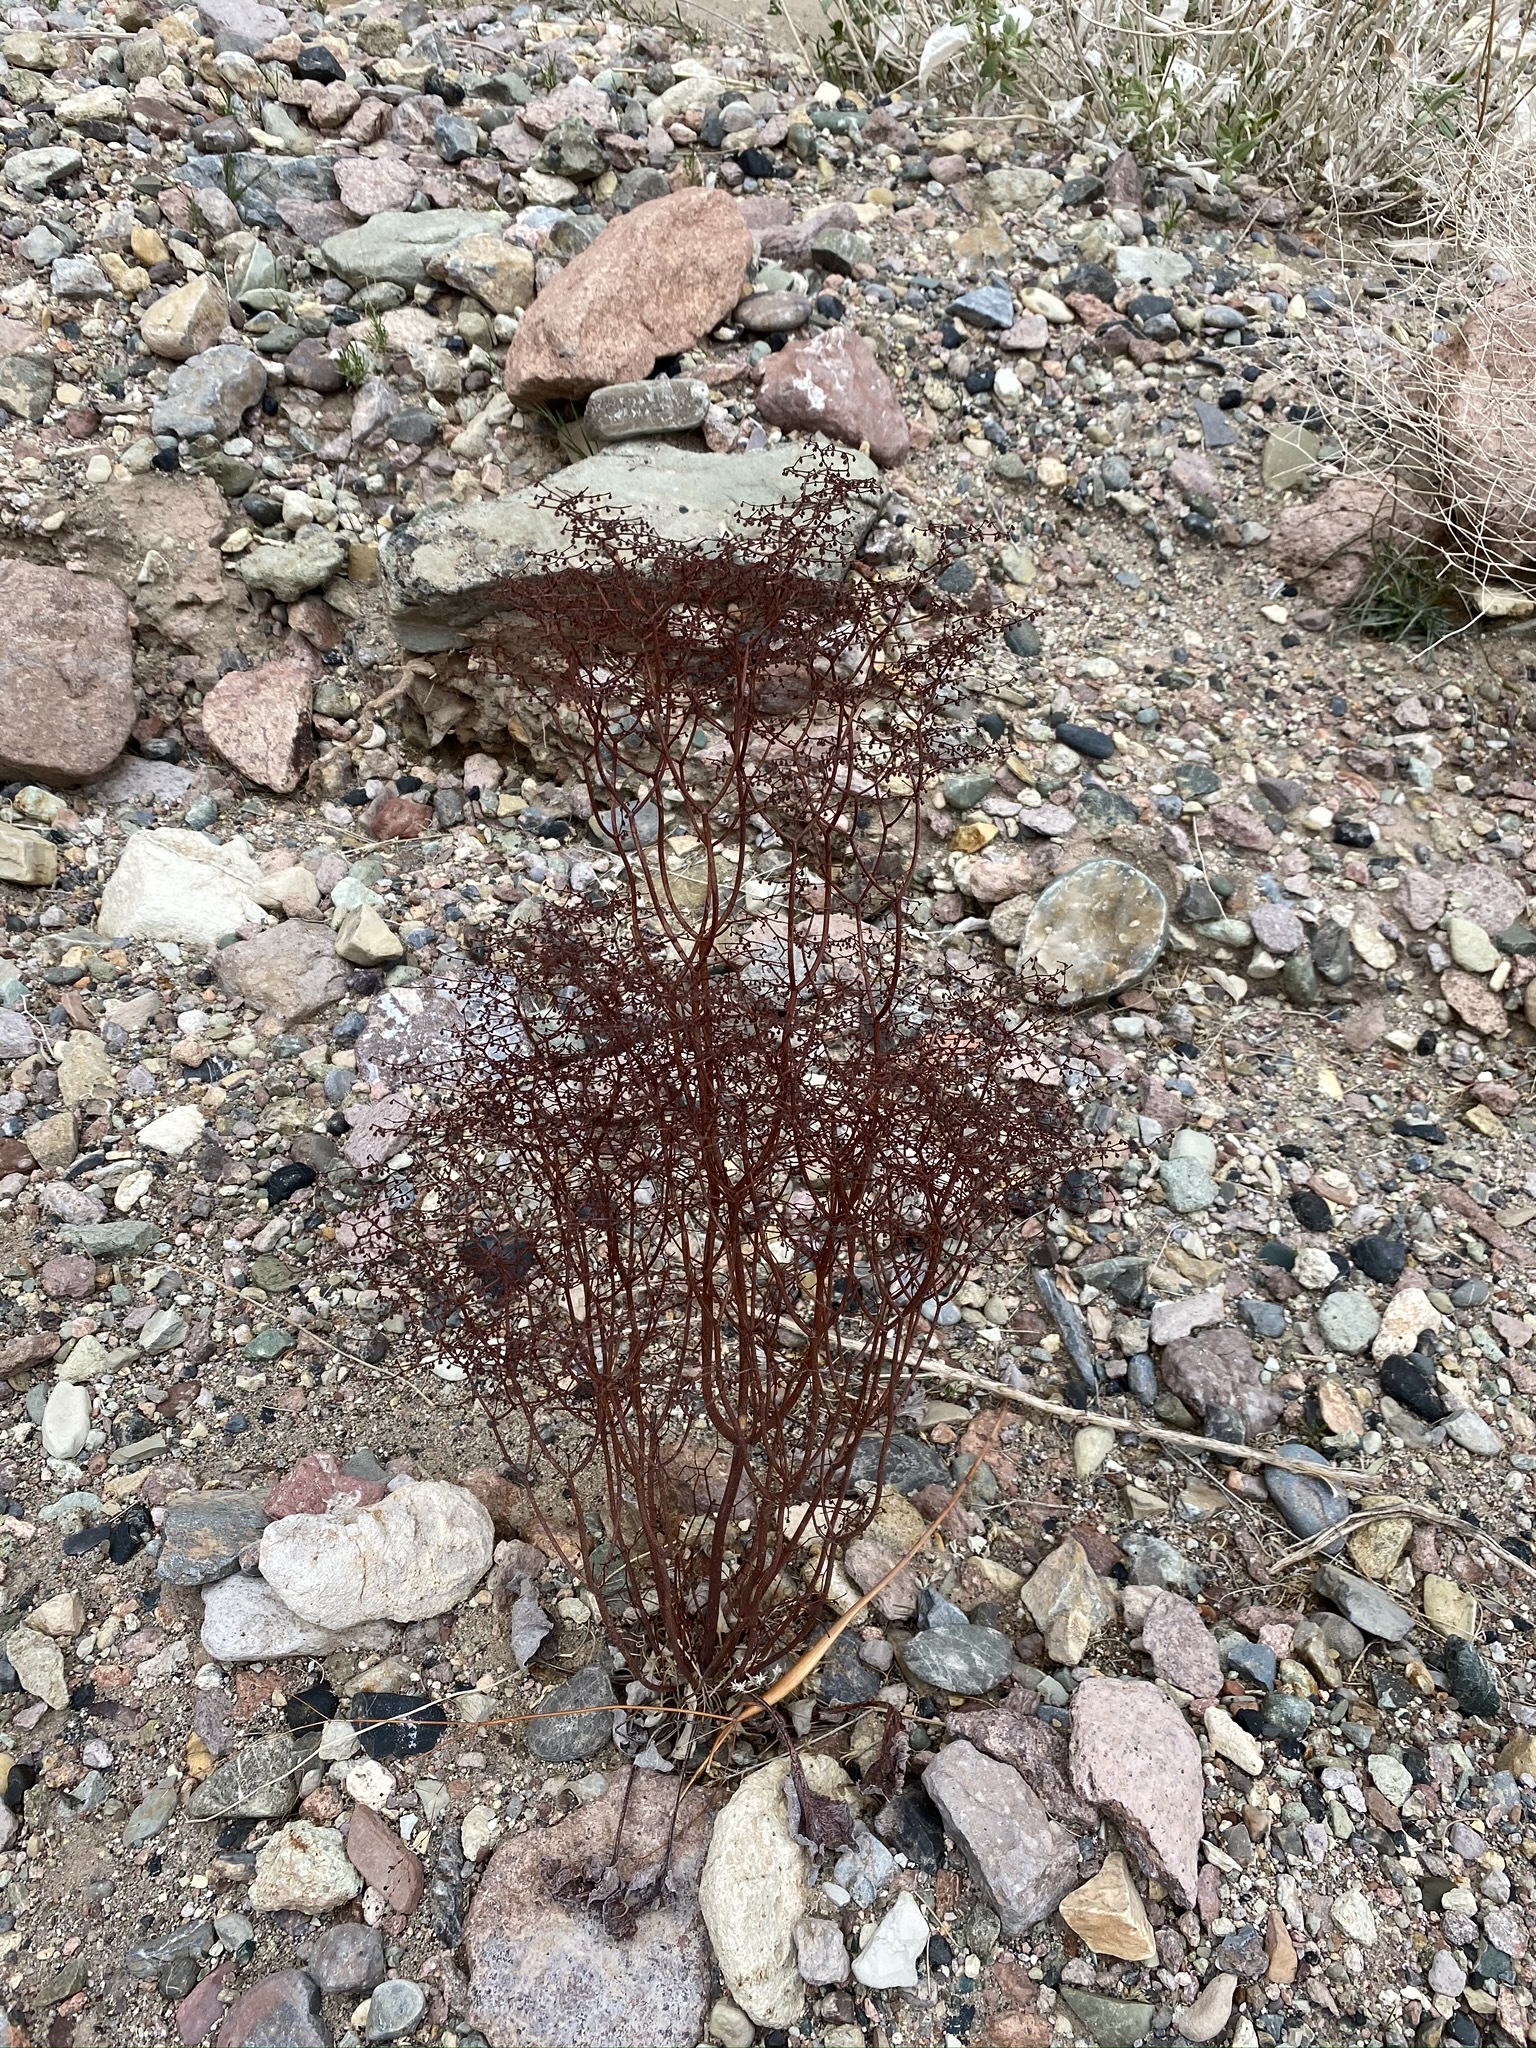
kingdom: Plantae
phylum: Tracheophyta
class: Magnoliopsida
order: Caryophyllales
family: Polygonaceae
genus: Eriogonum
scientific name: Eriogonum rixfordii
